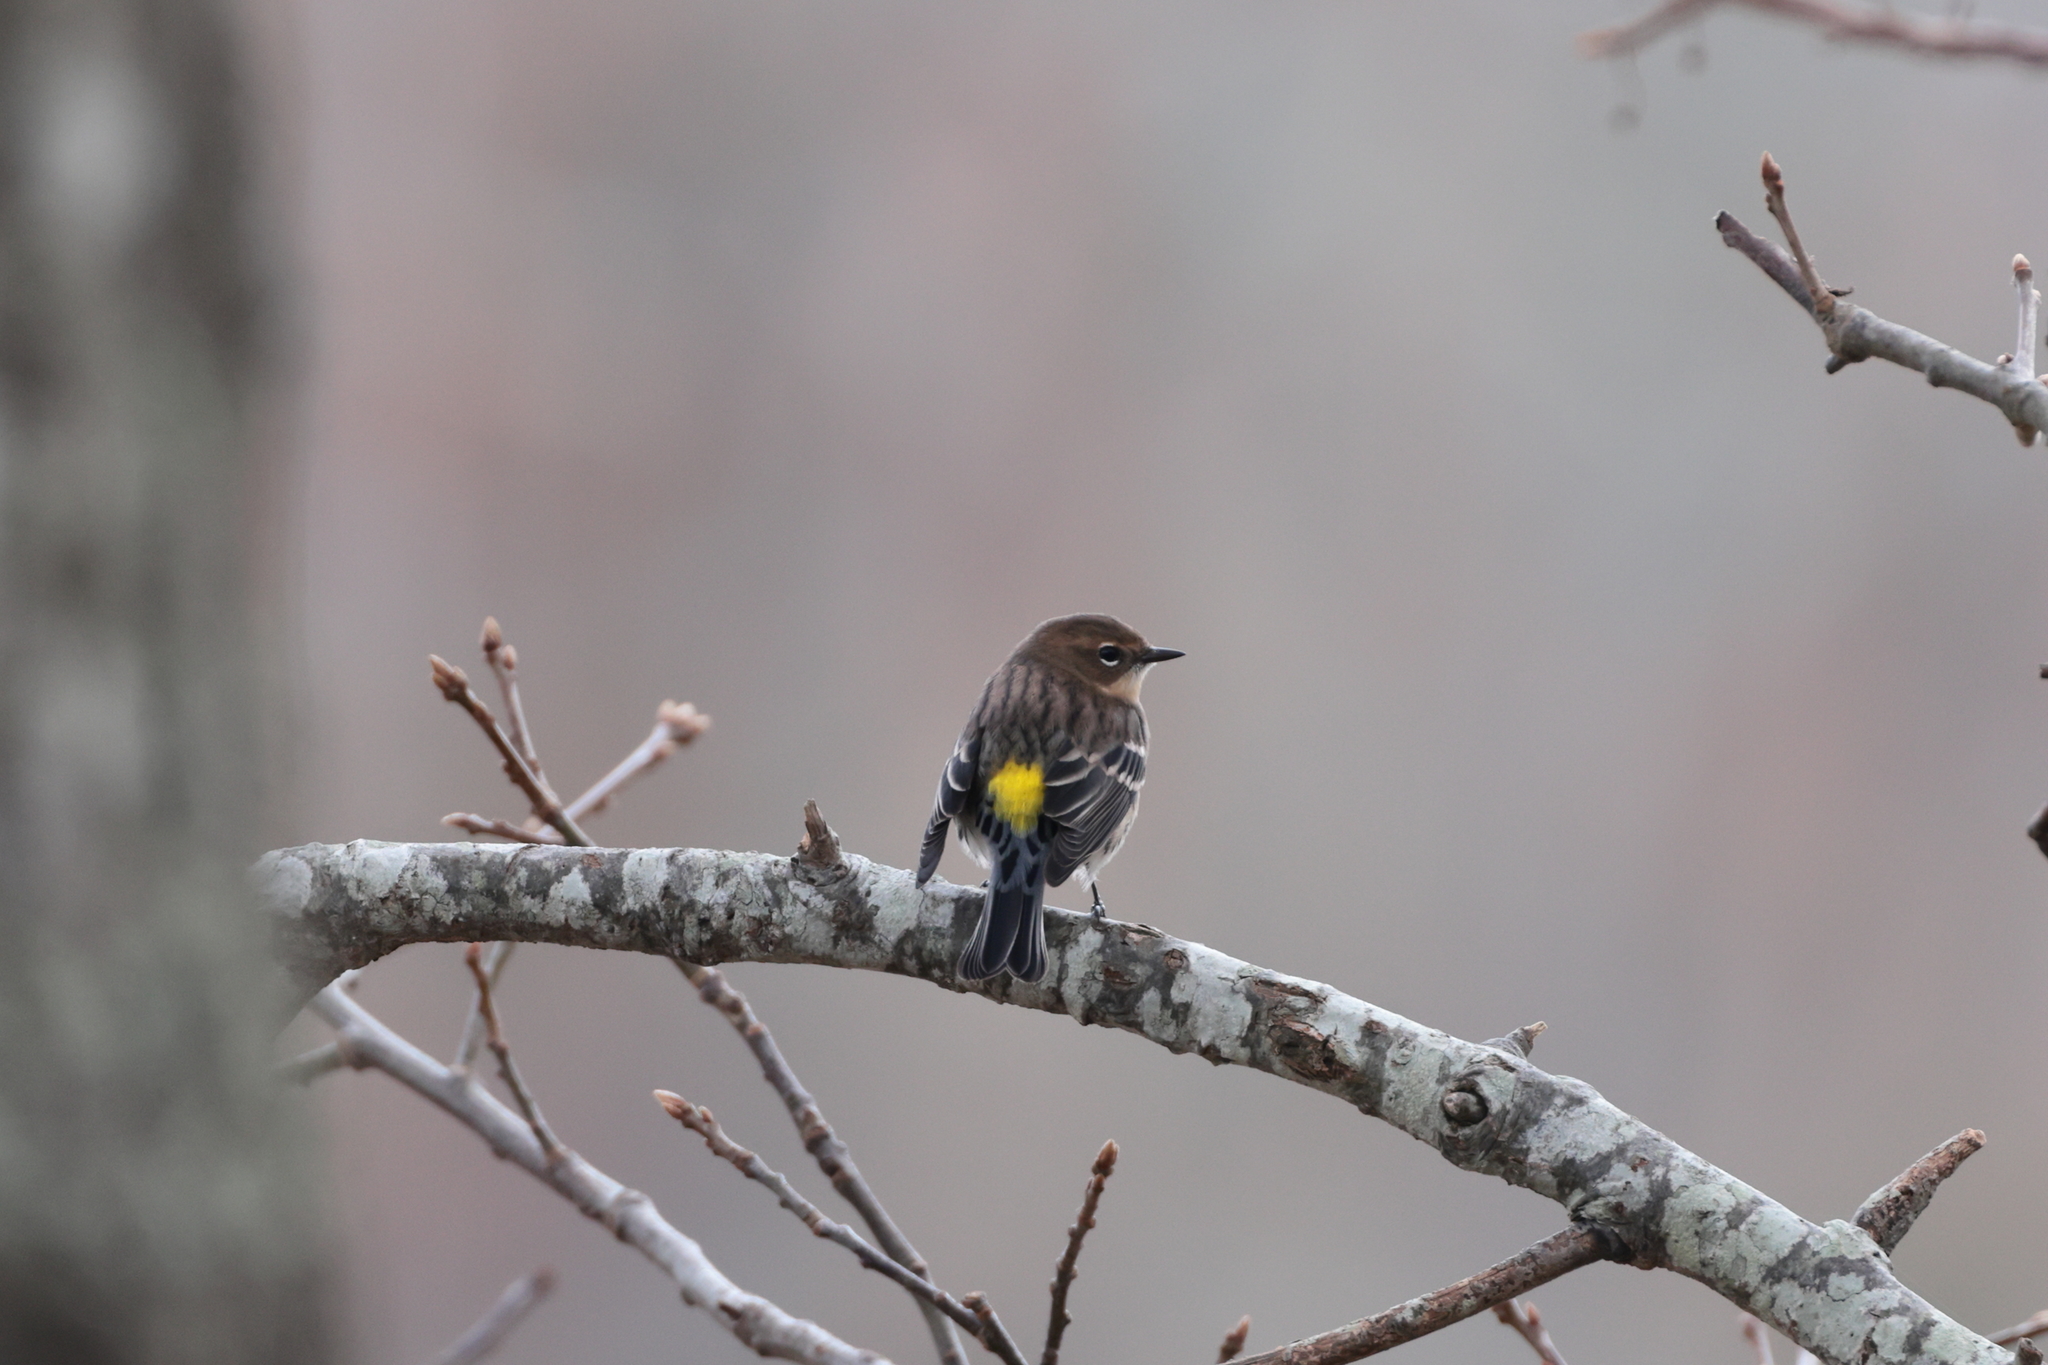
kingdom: Animalia
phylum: Chordata
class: Aves
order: Passeriformes
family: Parulidae
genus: Setophaga
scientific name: Setophaga coronata
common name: Myrtle warbler
